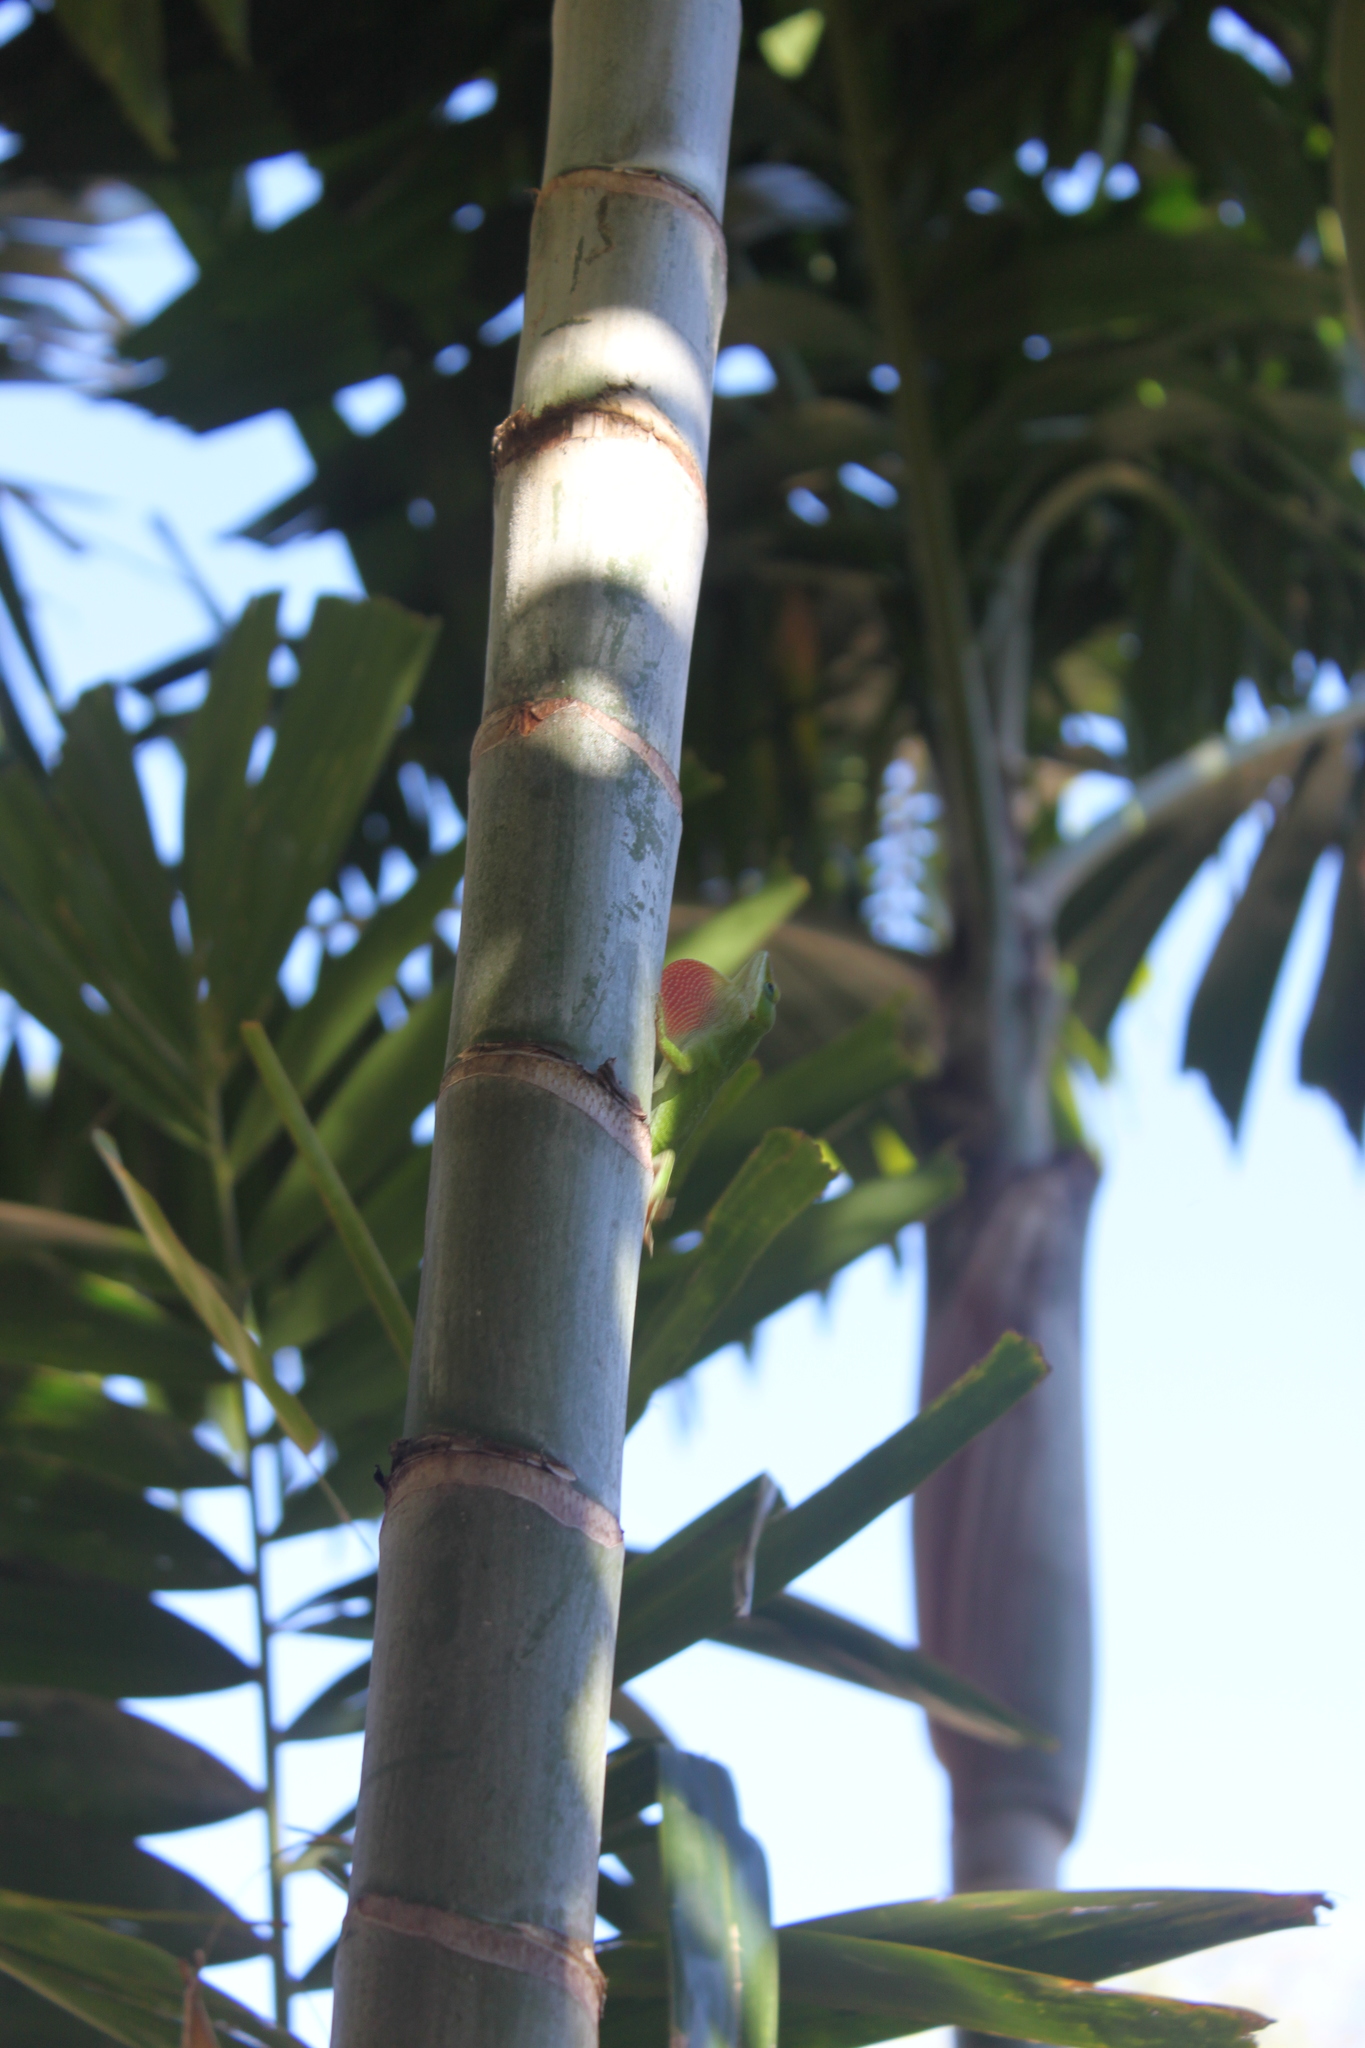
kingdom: Animalia
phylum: Chordata
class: Squamata
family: Dactyloidae
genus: Anolis
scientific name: Anolis carolinensis
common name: Green anole
